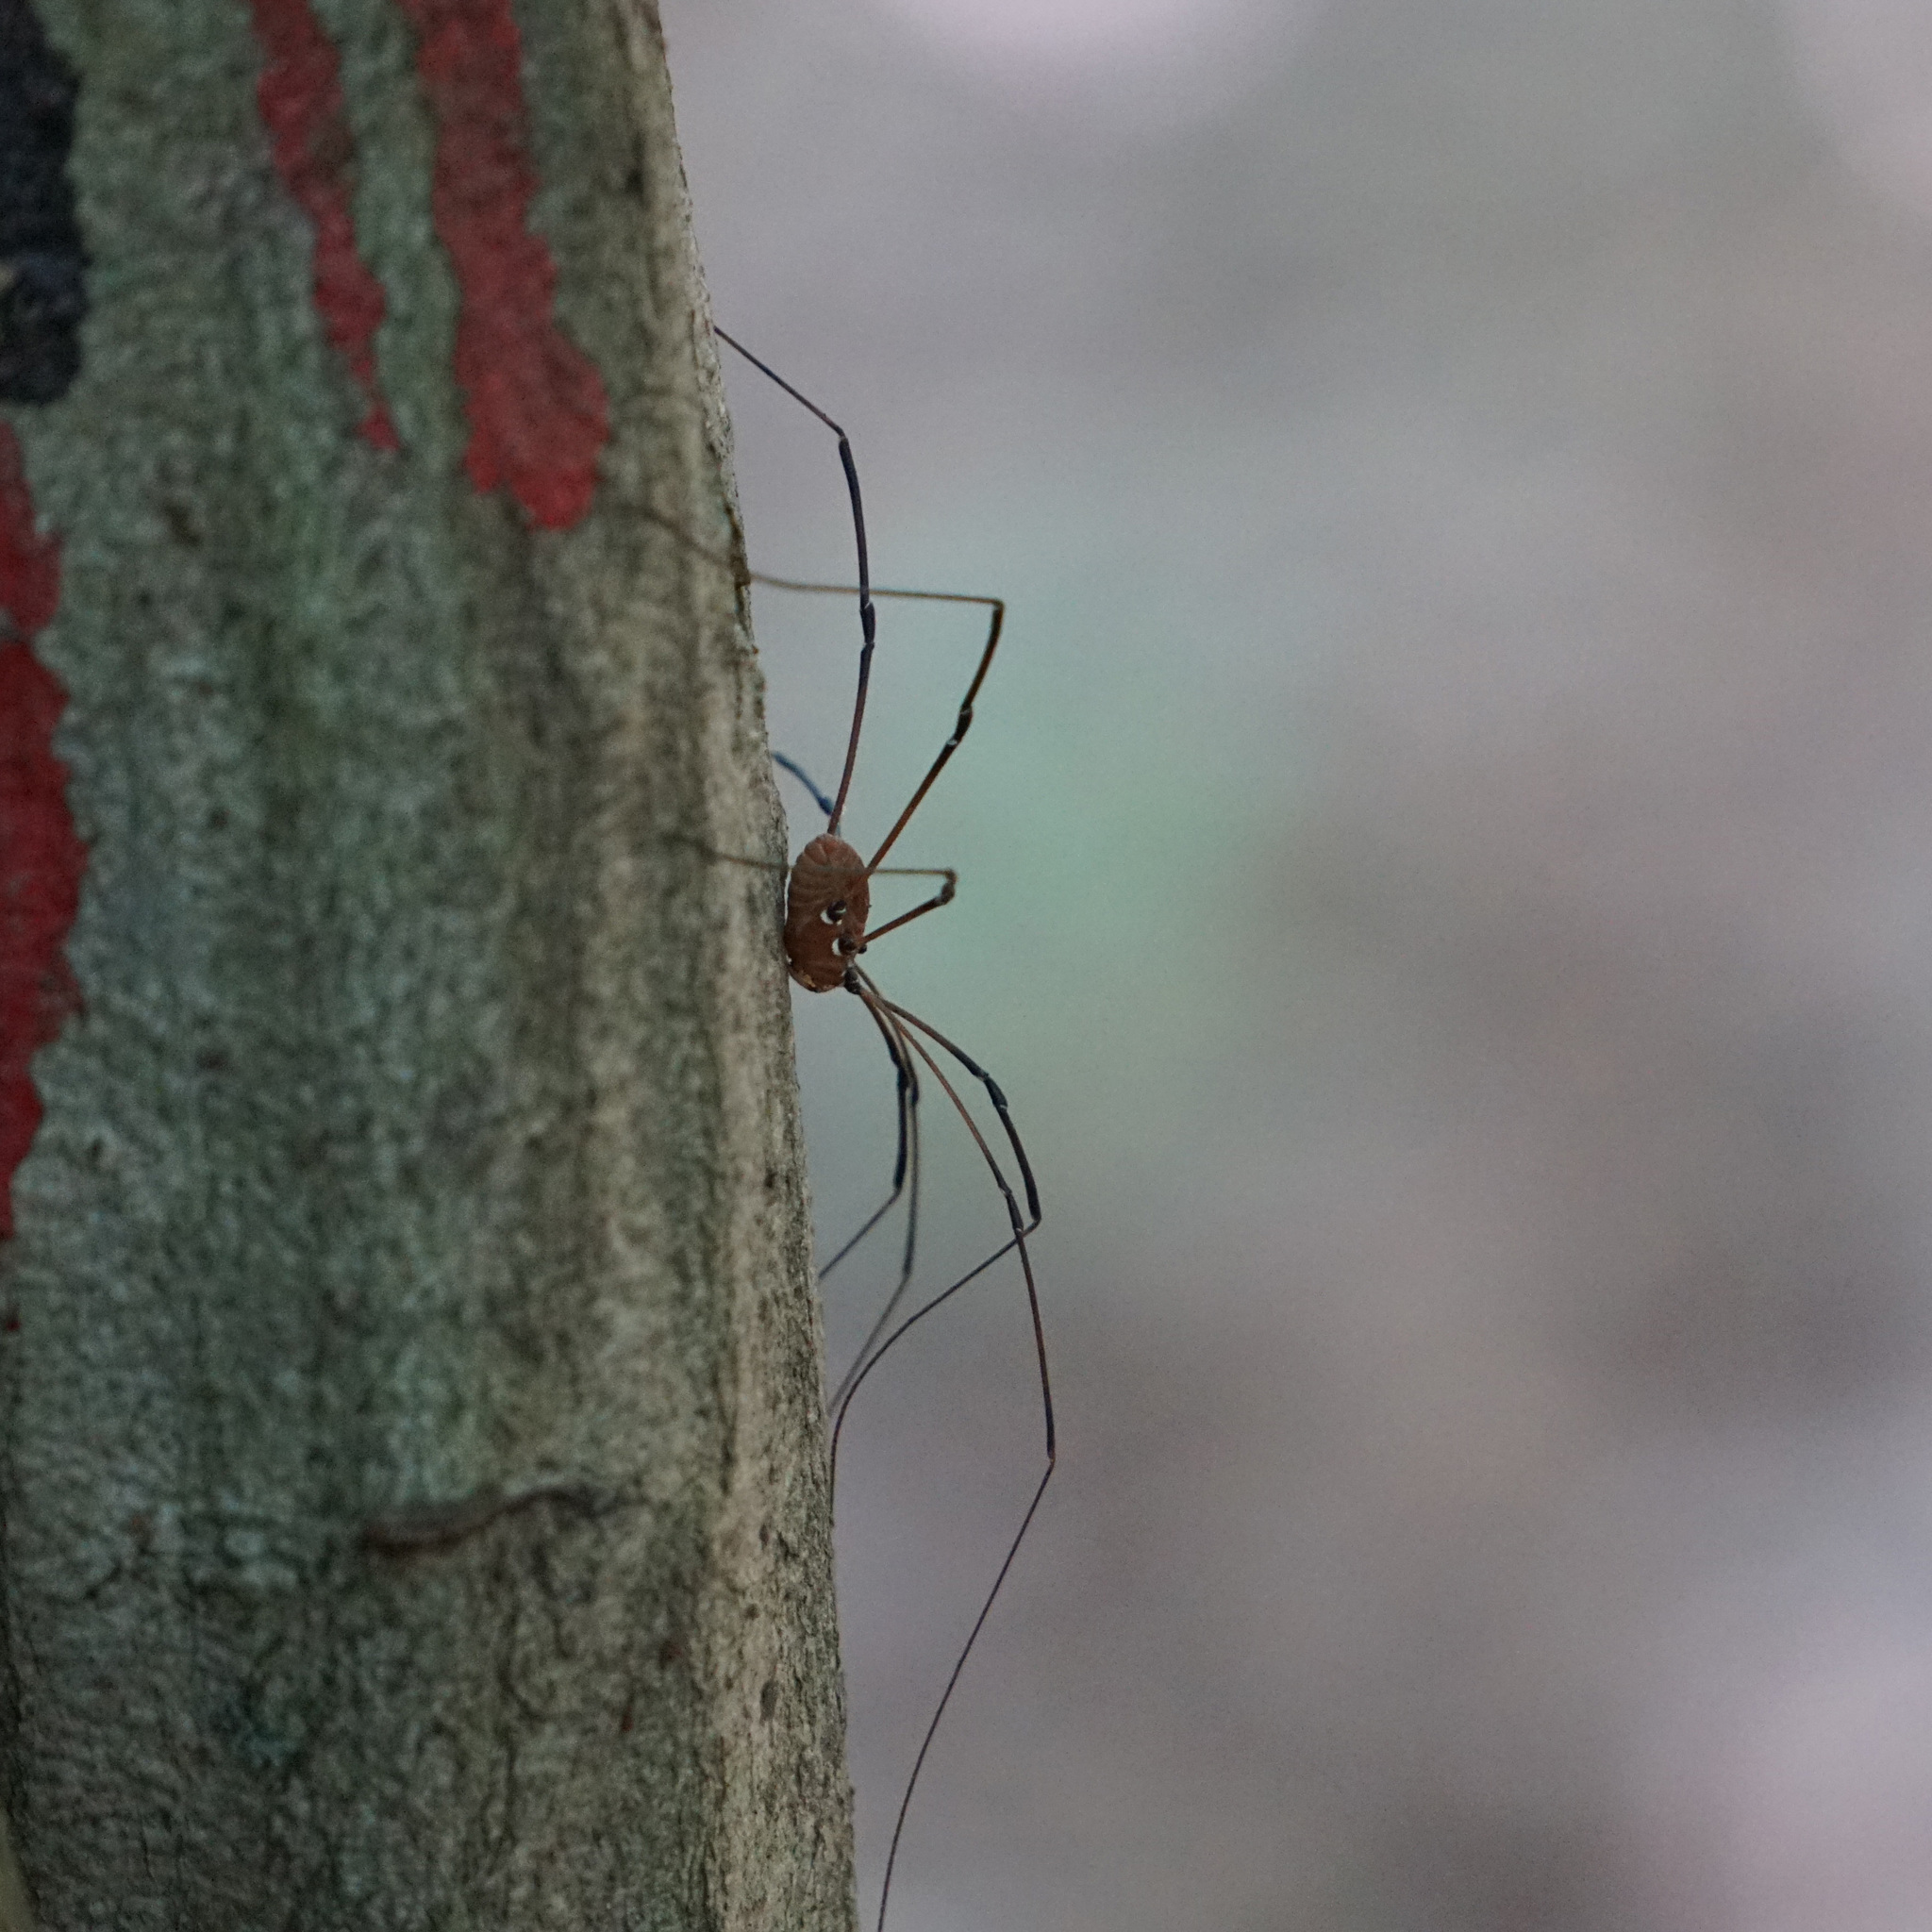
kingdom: Animalia
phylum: Arthropoda
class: Arachnida
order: Opiliones
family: Sclerosomatidae
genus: Leiobunum
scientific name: Leiobunum verrucosum
